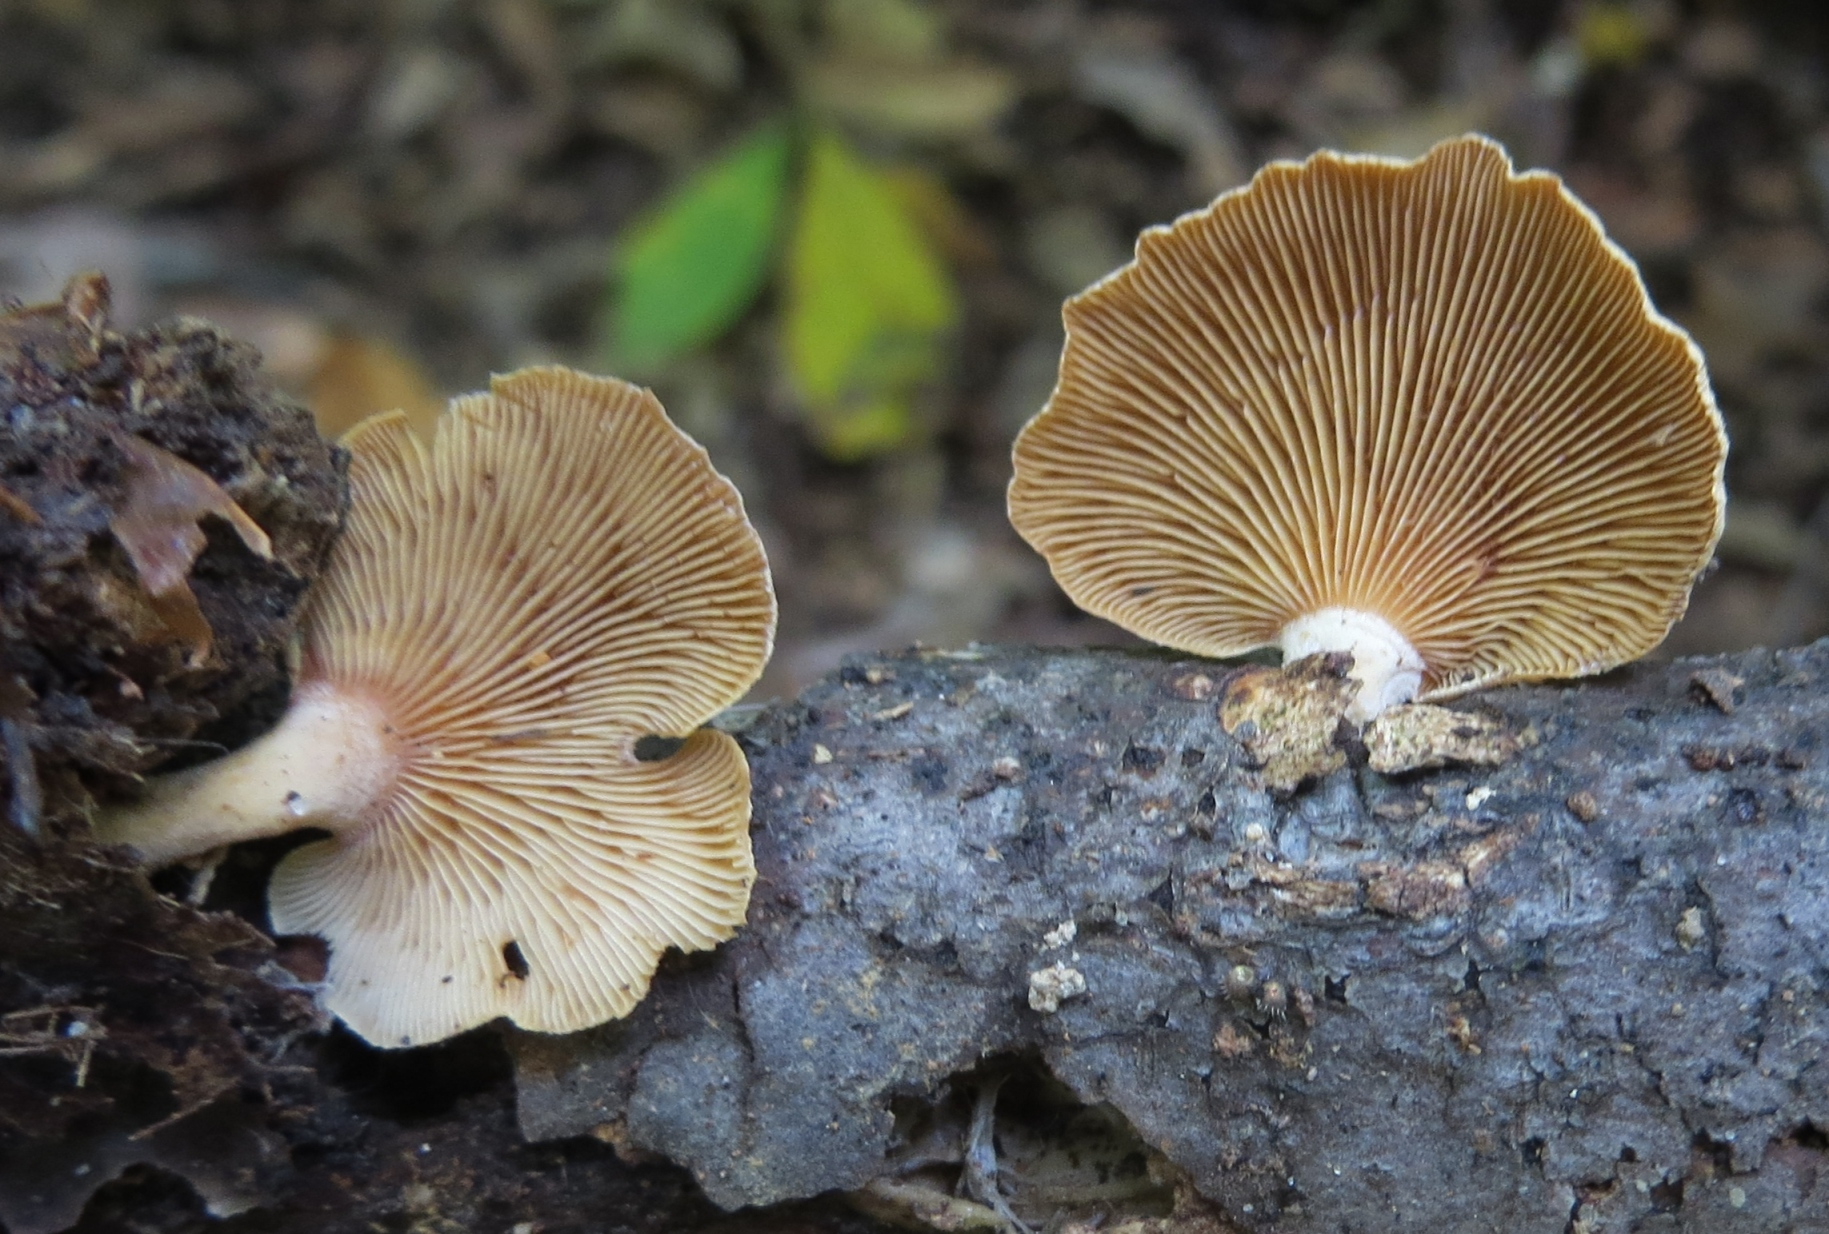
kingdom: Fungi
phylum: Basidiomycota
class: Agaricomycetes
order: Agaricales
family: Mycenaceae
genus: Panellus
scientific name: Panellus stipticus
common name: Bitter oysterling
